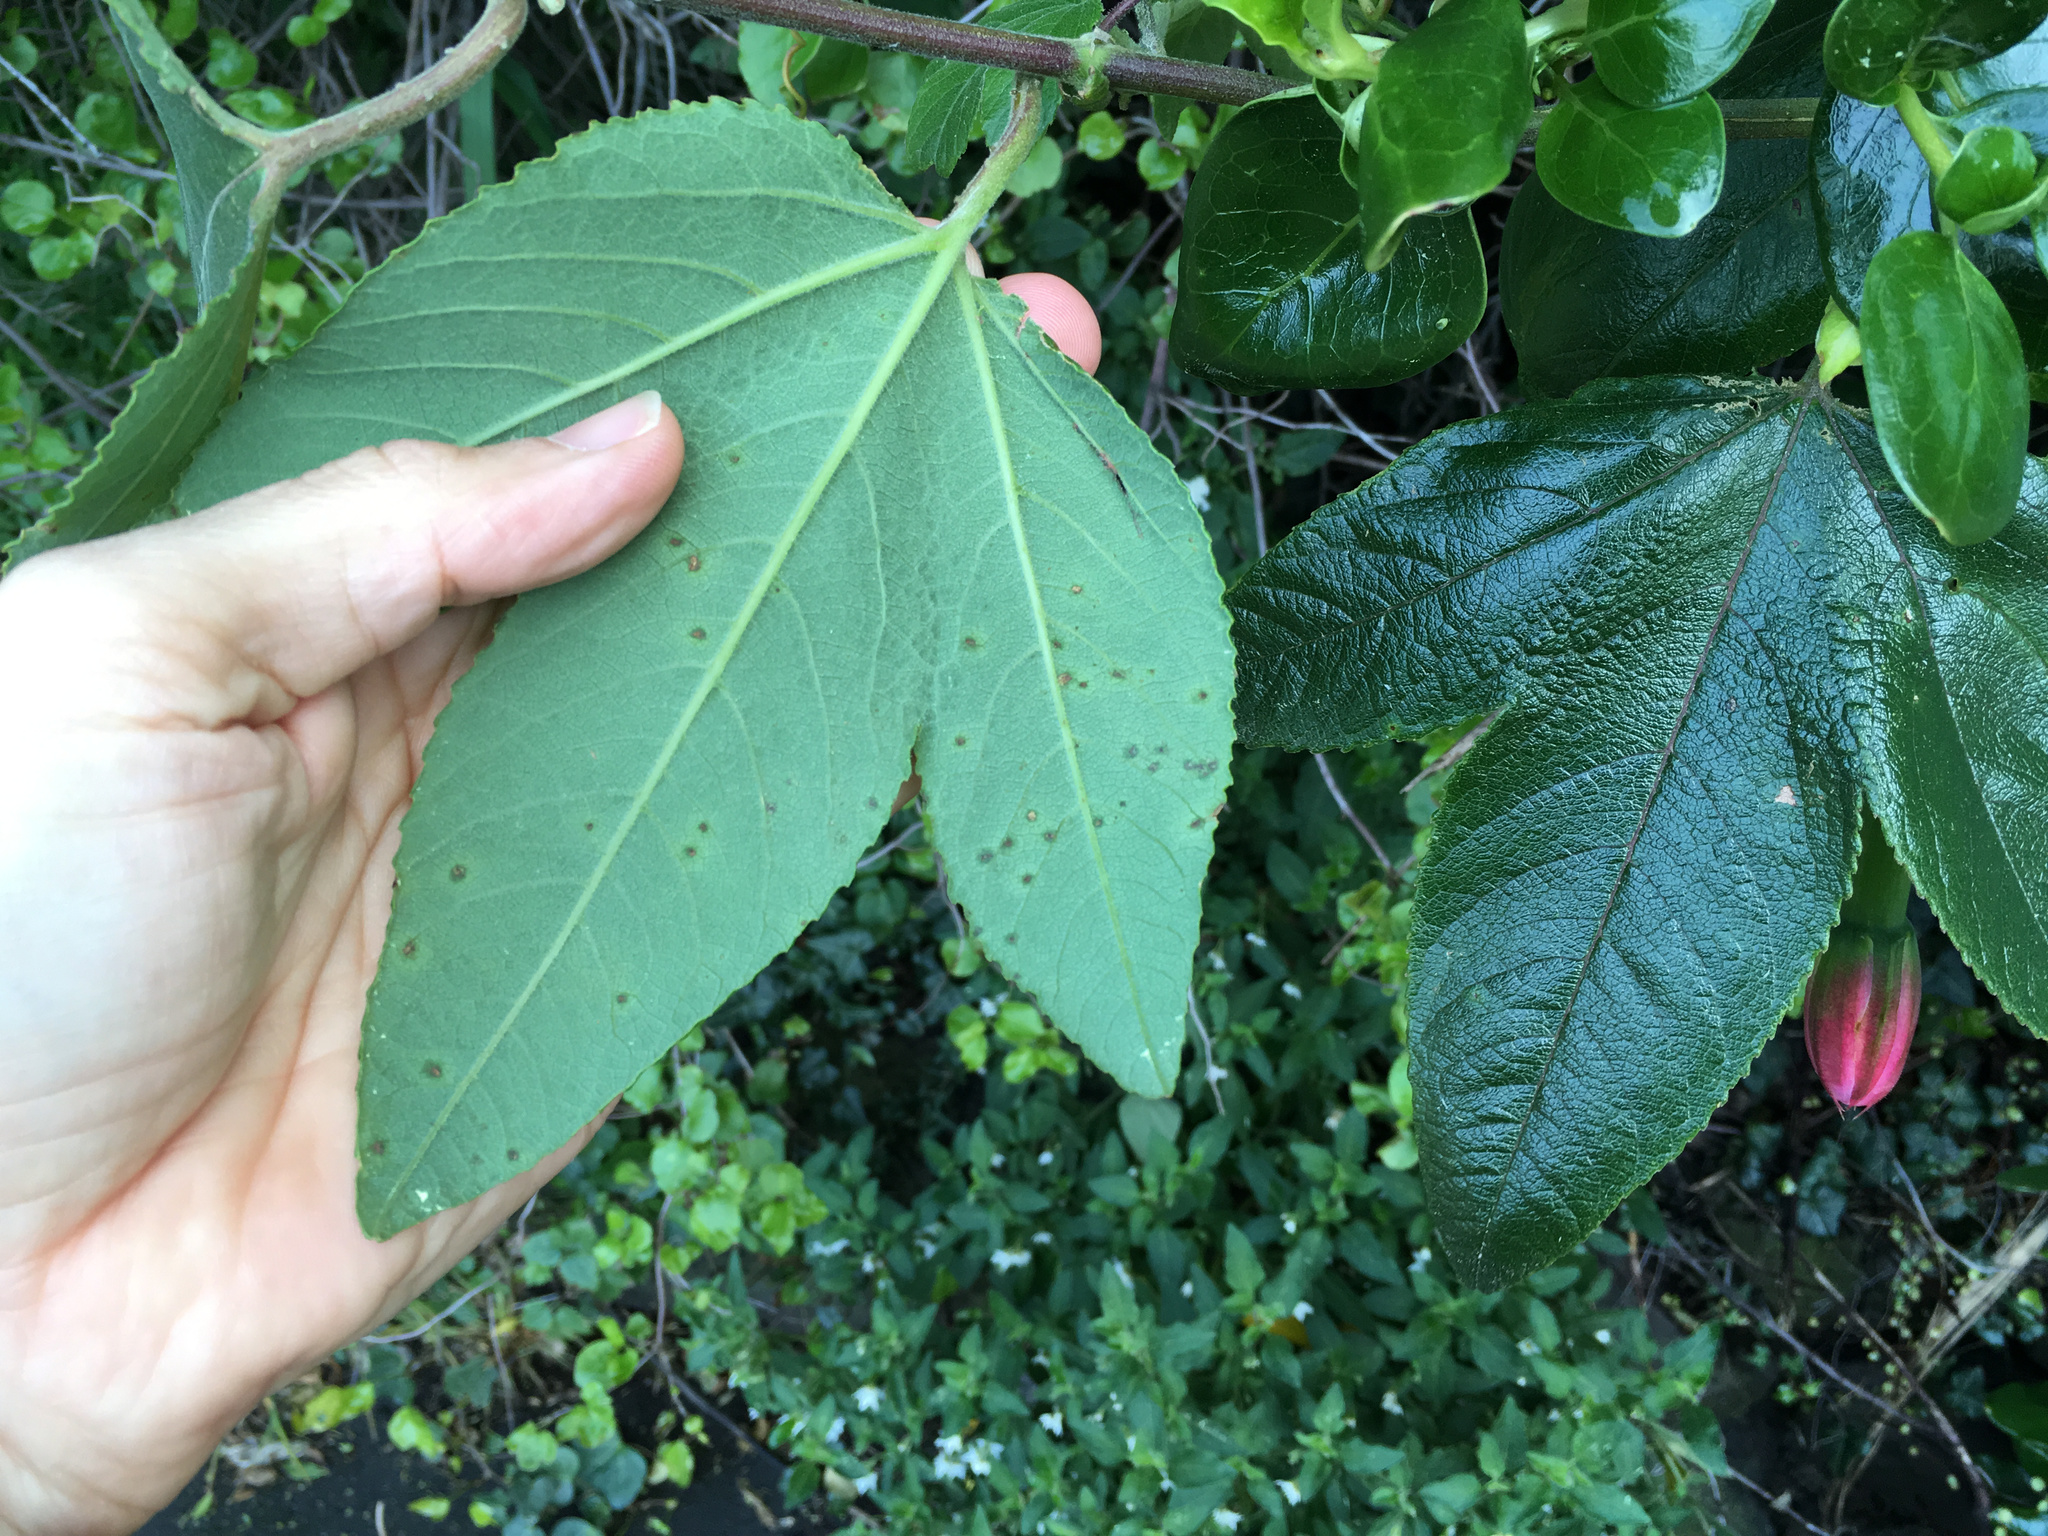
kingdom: Plantae
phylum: Tracheophyta
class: Magnoliopsida
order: Malpighiales
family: Passifloraceae
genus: Passiflora
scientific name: Passiflora tripartita
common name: Banana poka
